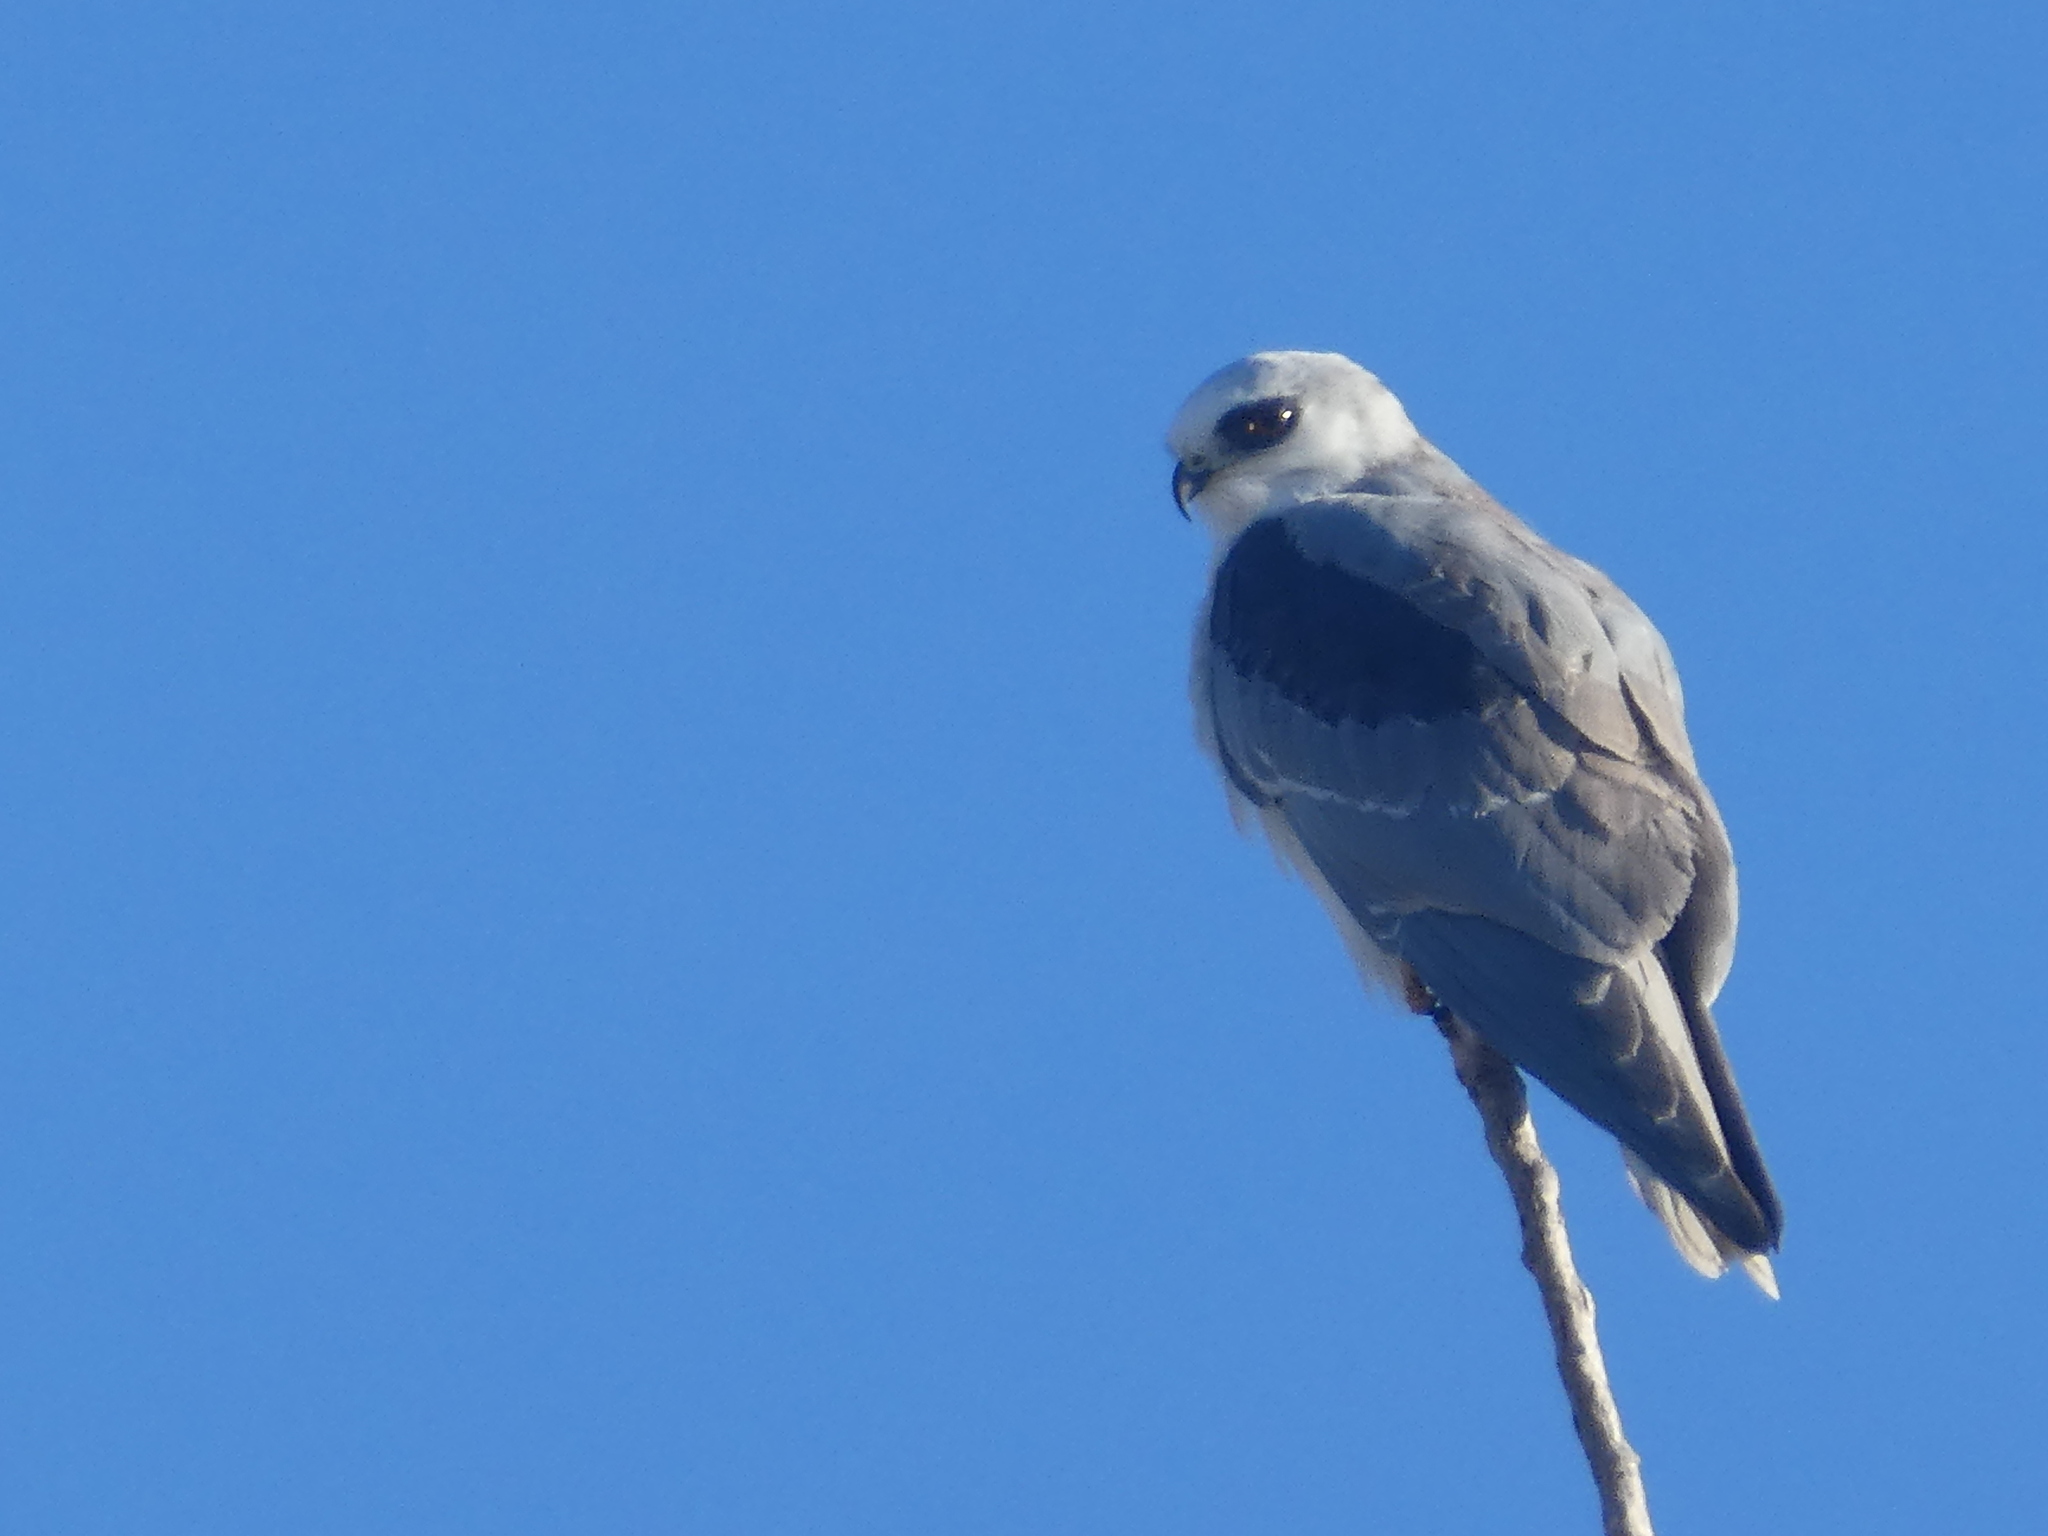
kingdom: Animalia
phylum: Chordata
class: Aves
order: Accipitriformes
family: Accipitridae
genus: Elanus
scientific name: Elanus leucurus
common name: White-tailed kite
